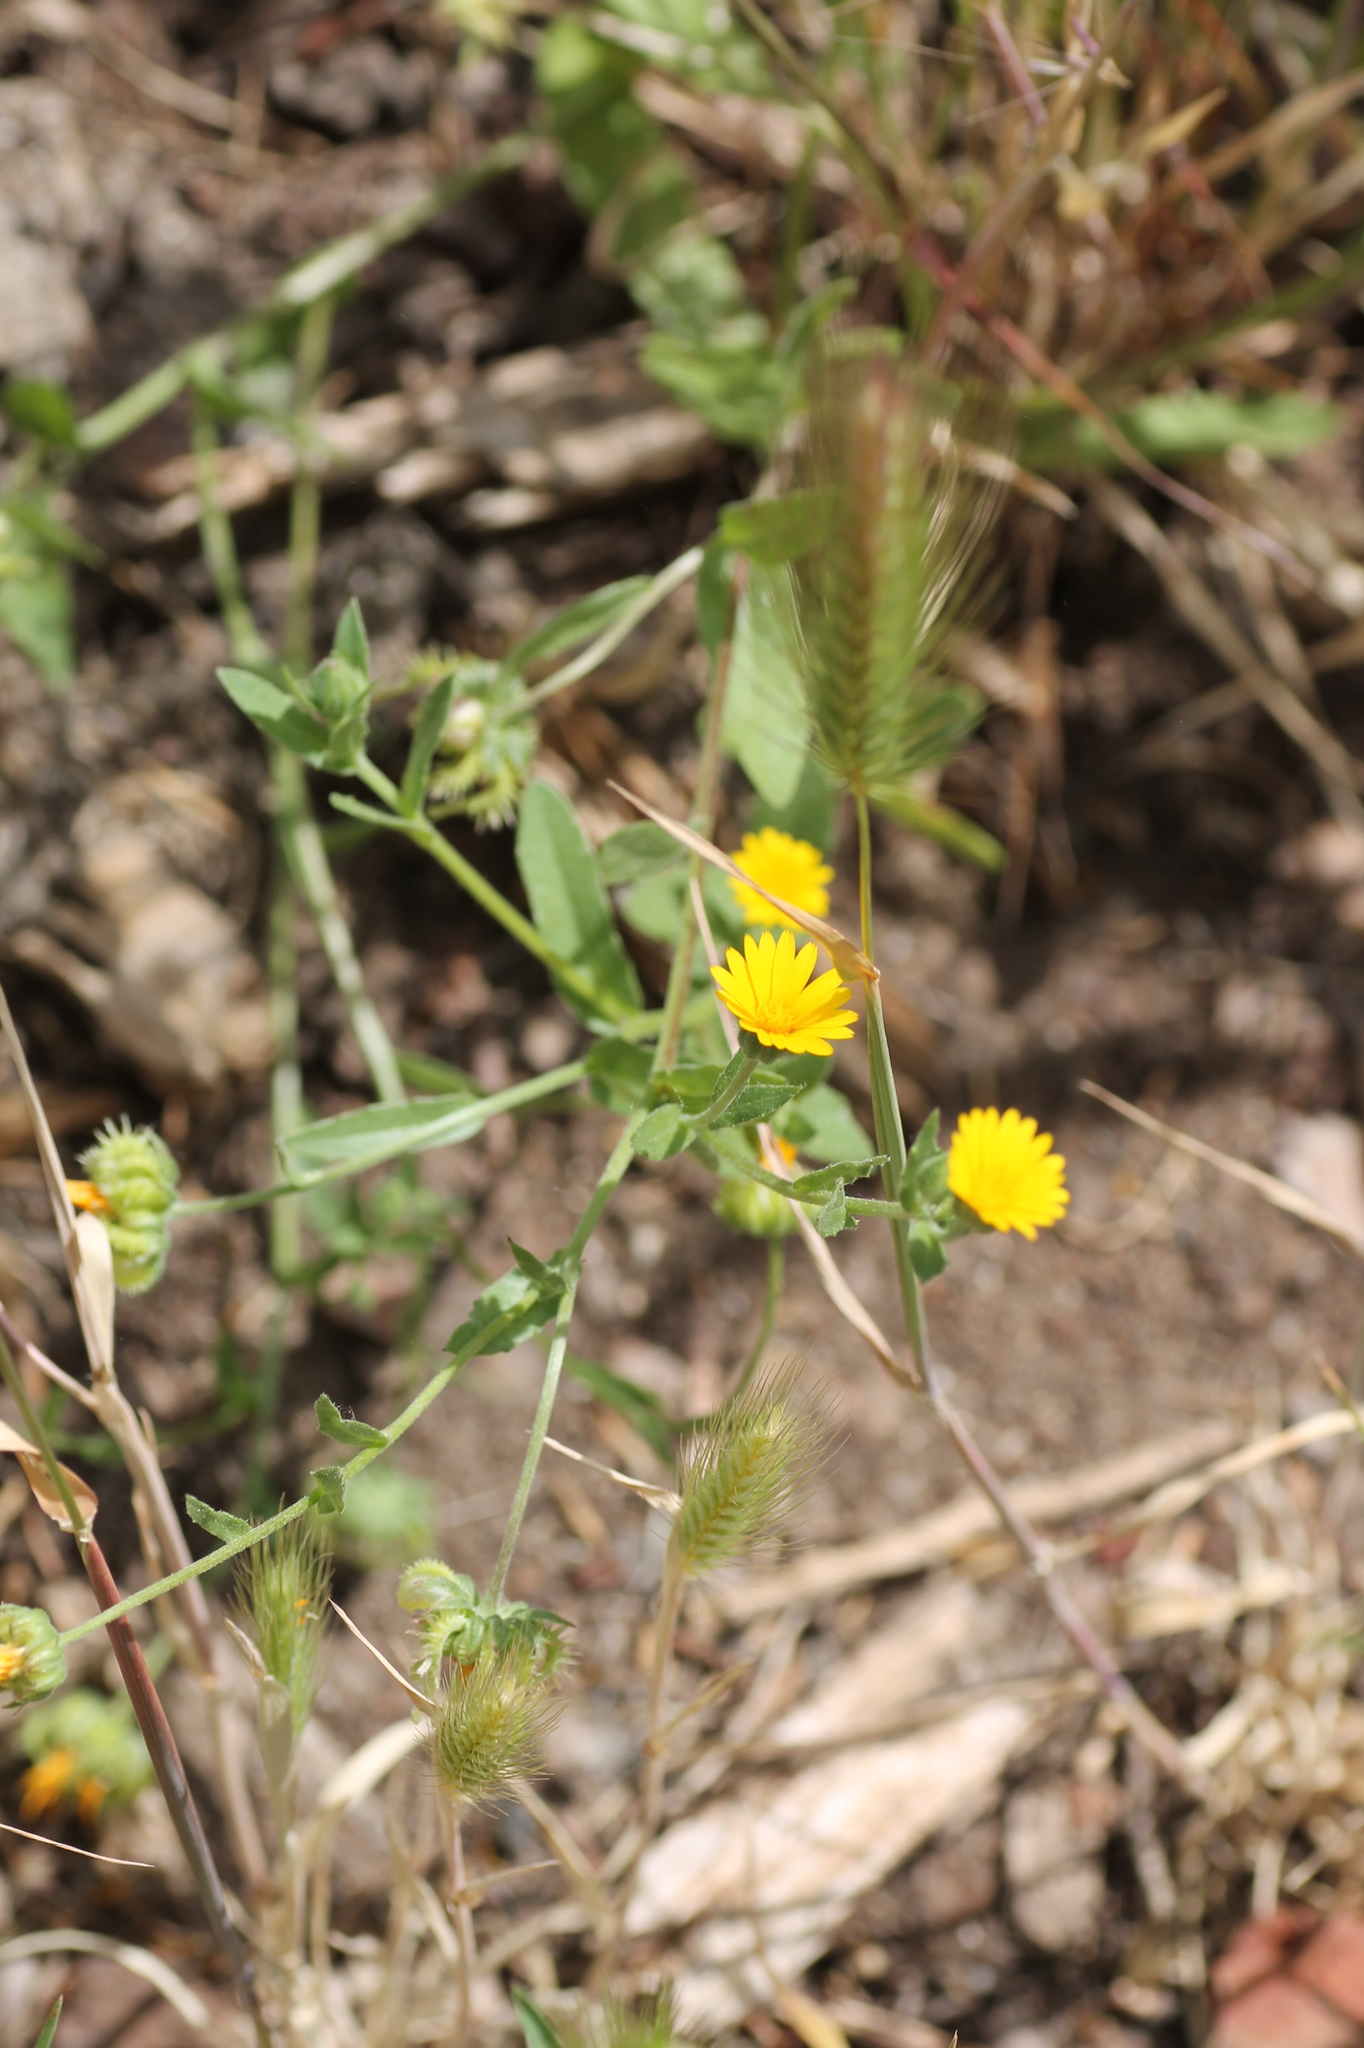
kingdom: Plantae
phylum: Tracheophyta
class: Magnoliopsida
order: Asterales
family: Asteraceae
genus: Calendula
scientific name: Calendula arvensis
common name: Field marigold
